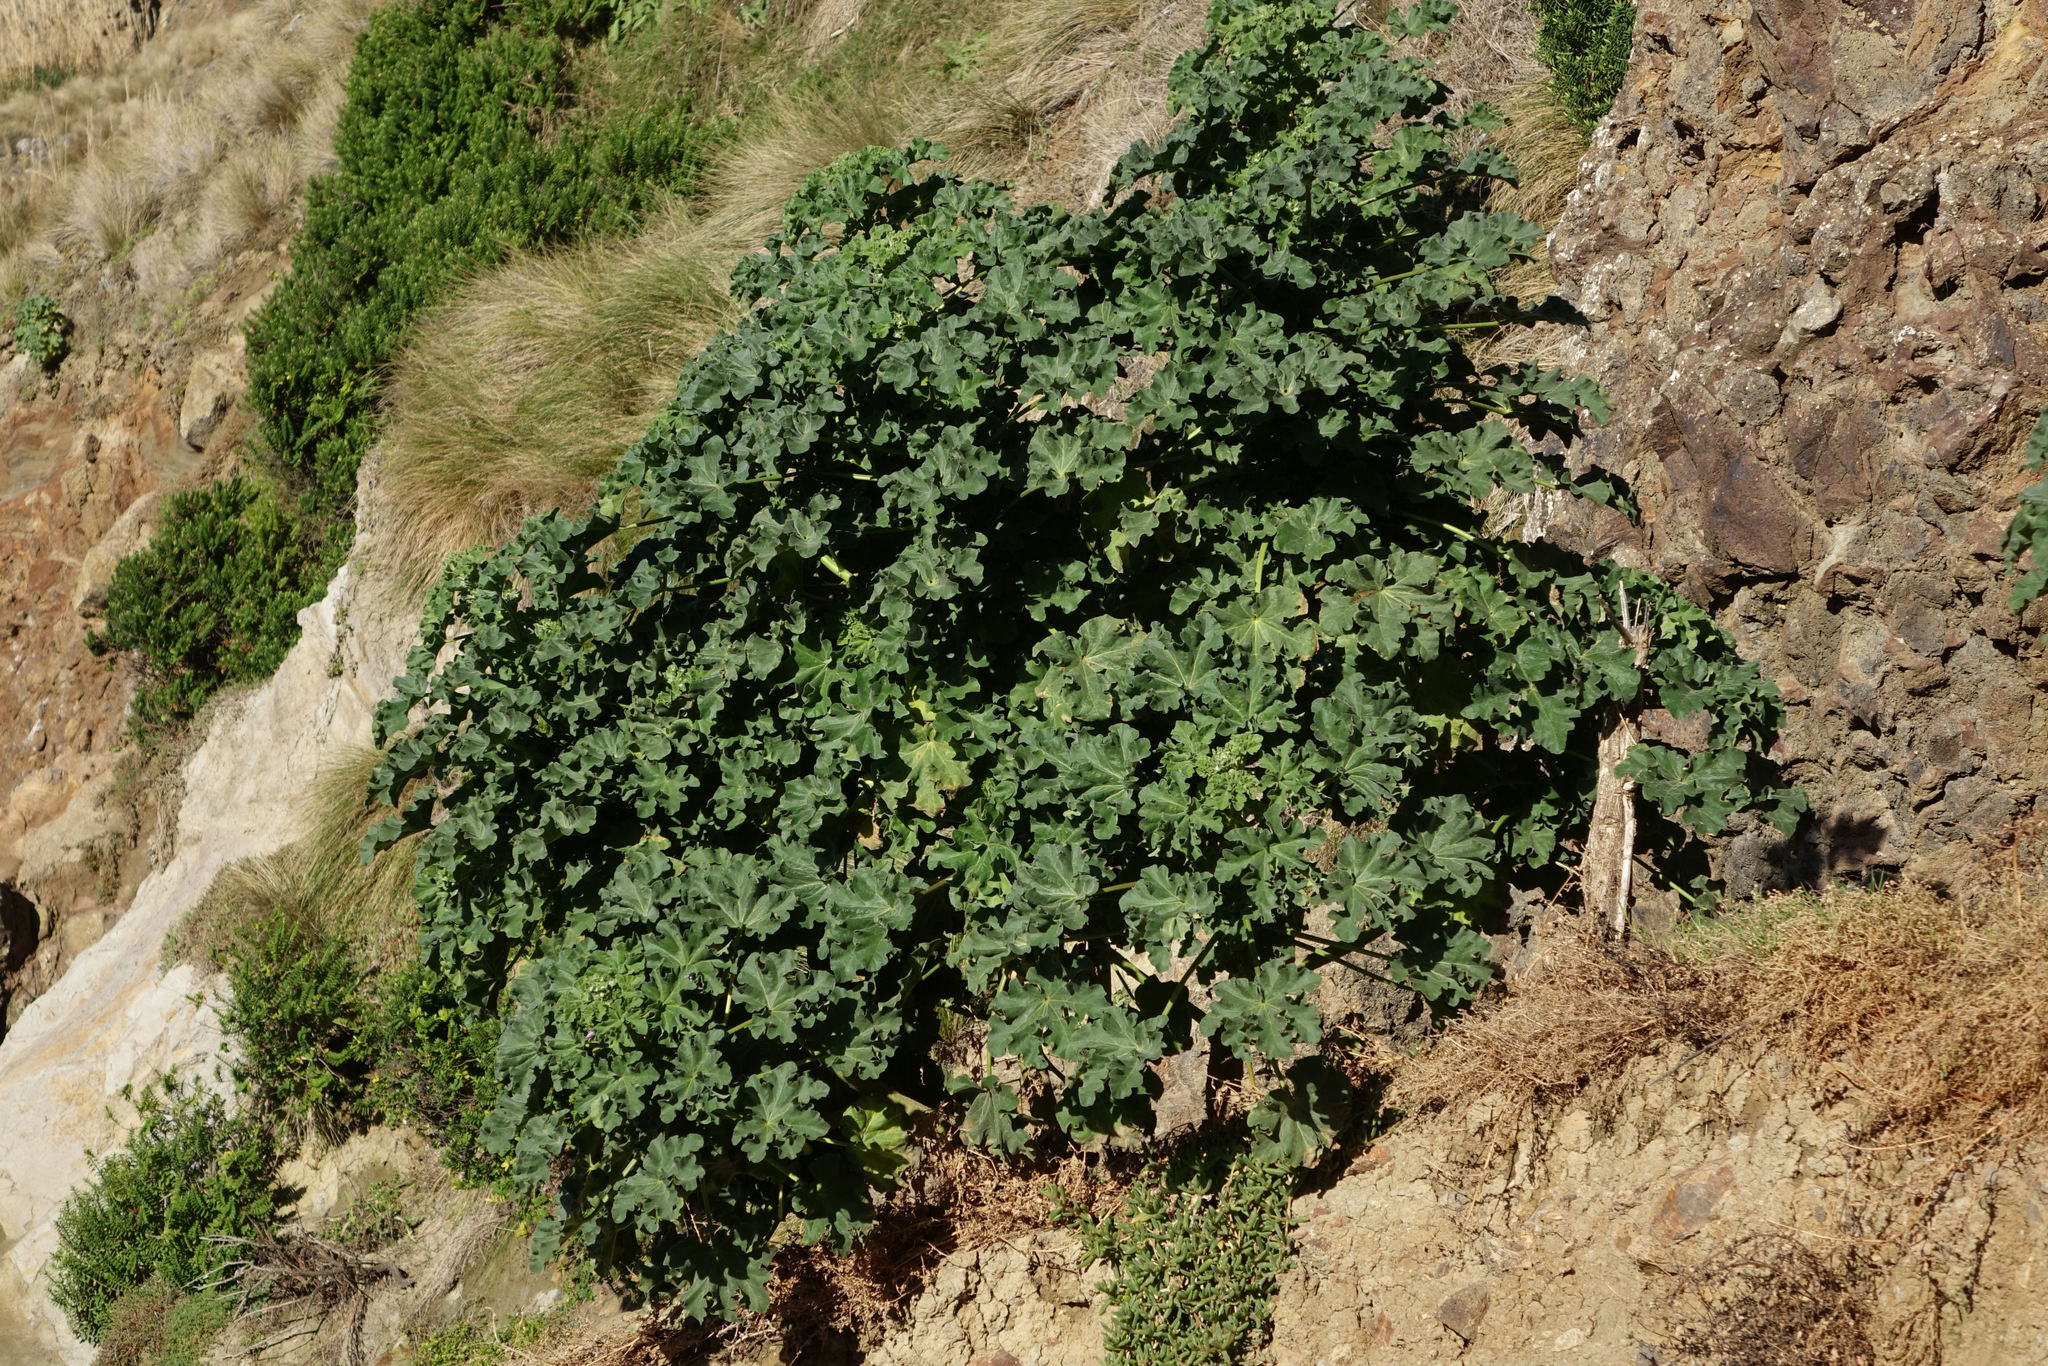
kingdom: Plantae
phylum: Tracheophyta
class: Magnoliopsida
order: Malvales
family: Malvaceae
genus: Malva
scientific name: Malva arborea
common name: Tree mallow
